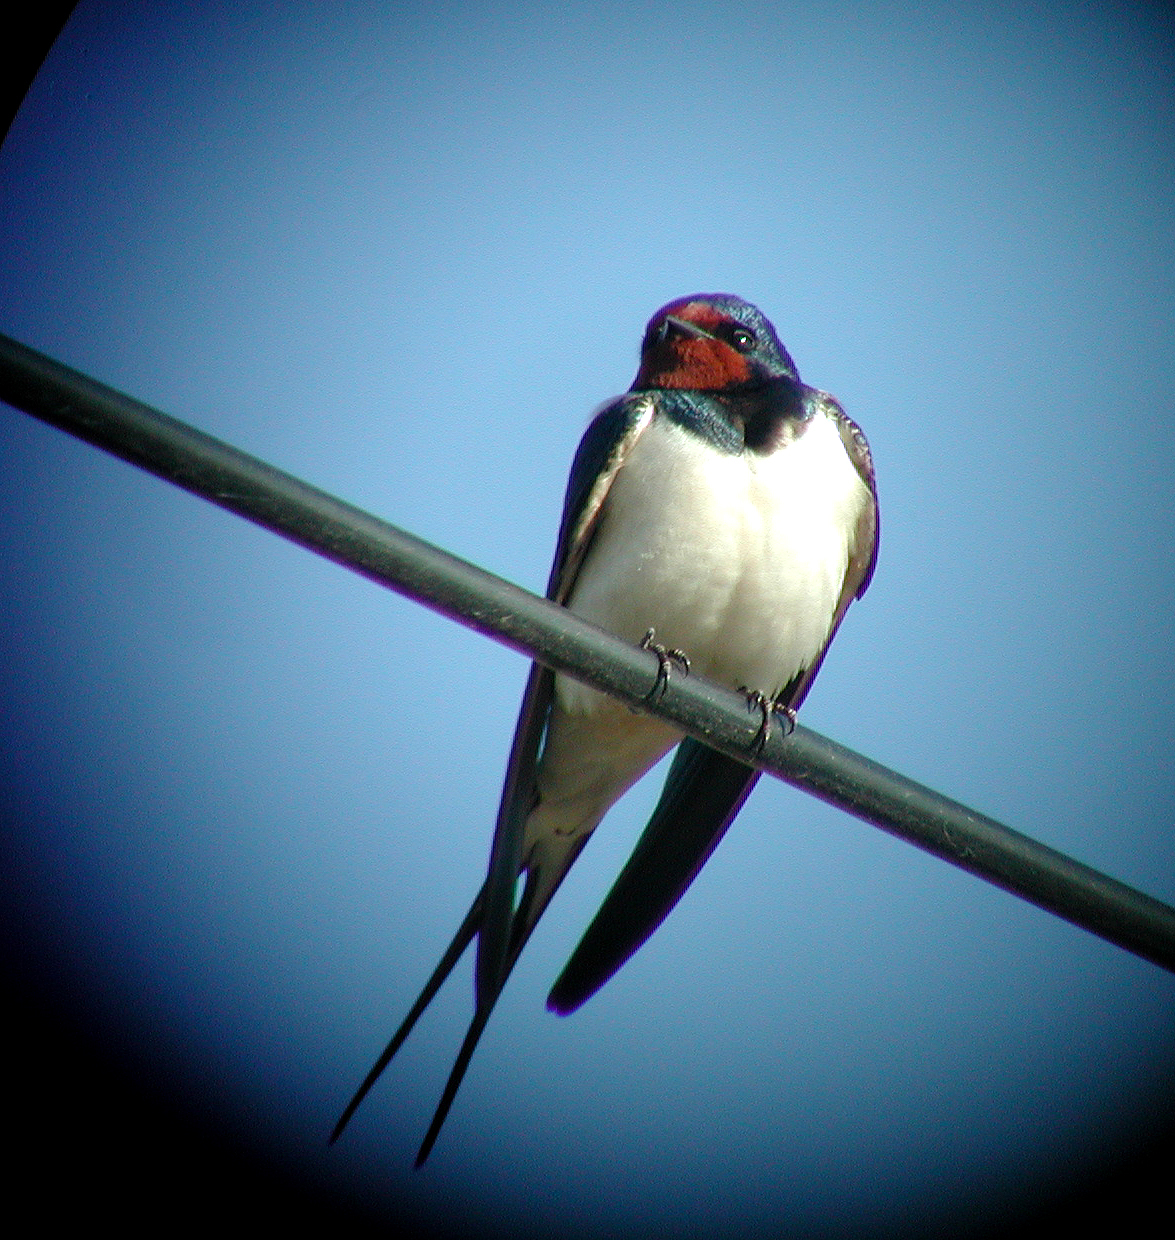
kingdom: Animalia
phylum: Chordata
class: Aves
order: Passeriformes
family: Hirundinidae
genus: Hirundo
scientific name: Hirundo rustica
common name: Barn swallow
